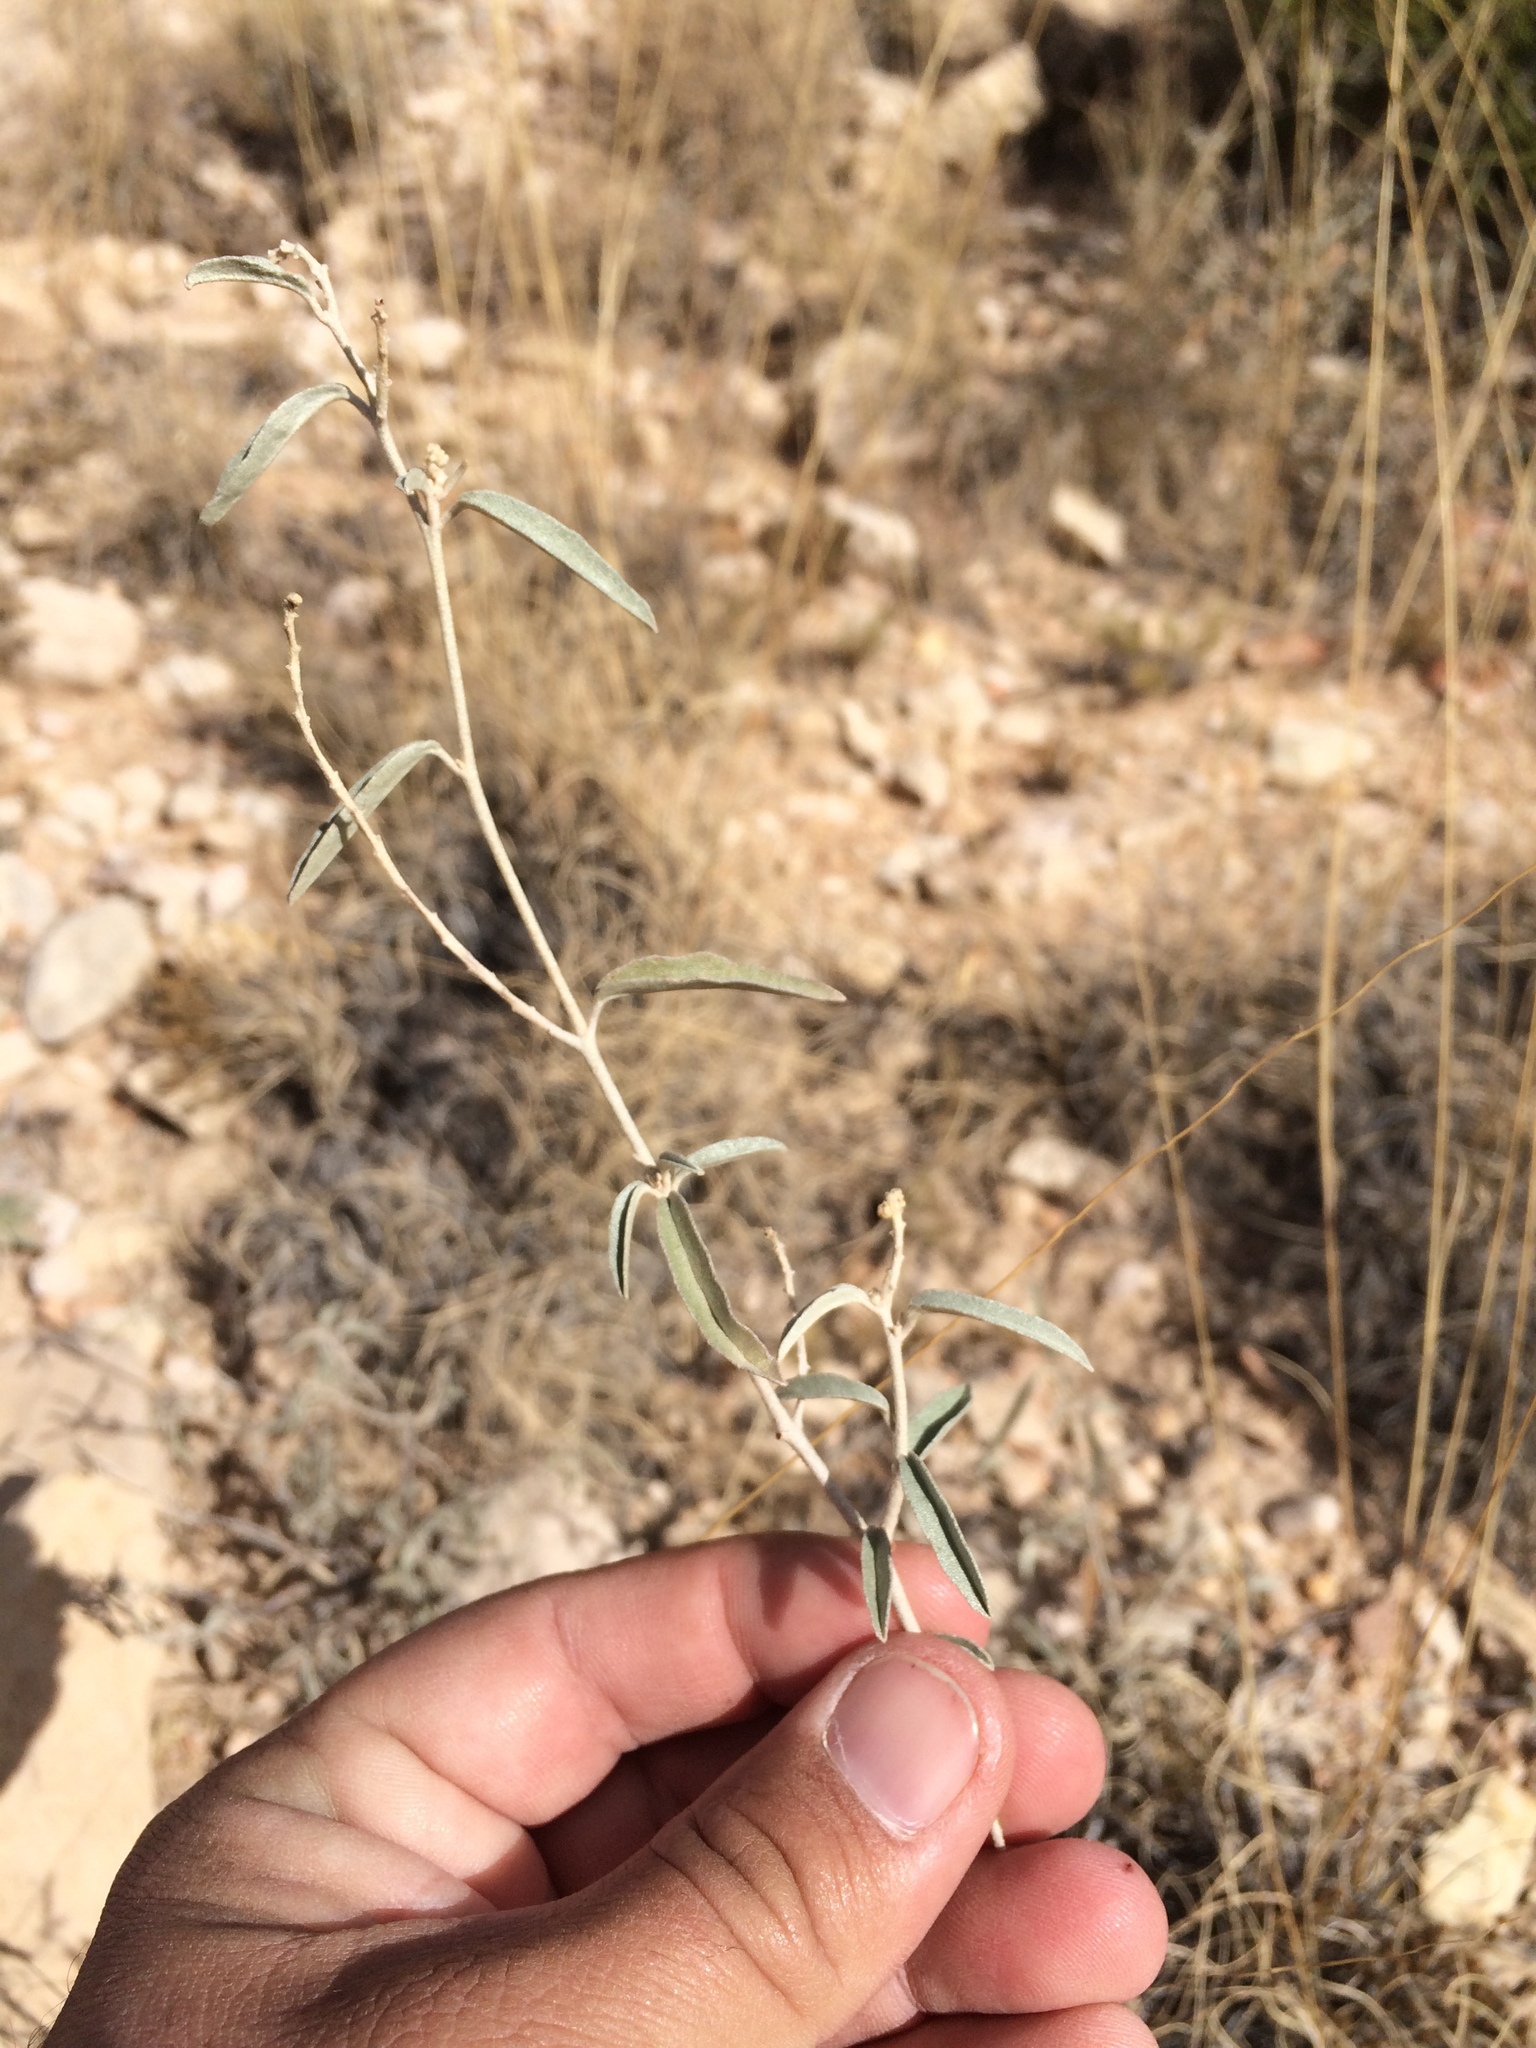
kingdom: Plantae
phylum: Tracheophyta
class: Magnoliopsida
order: Malpighiales
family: Euphorbiaceae
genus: Croton
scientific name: Croton dioicus
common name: Grassland croton
